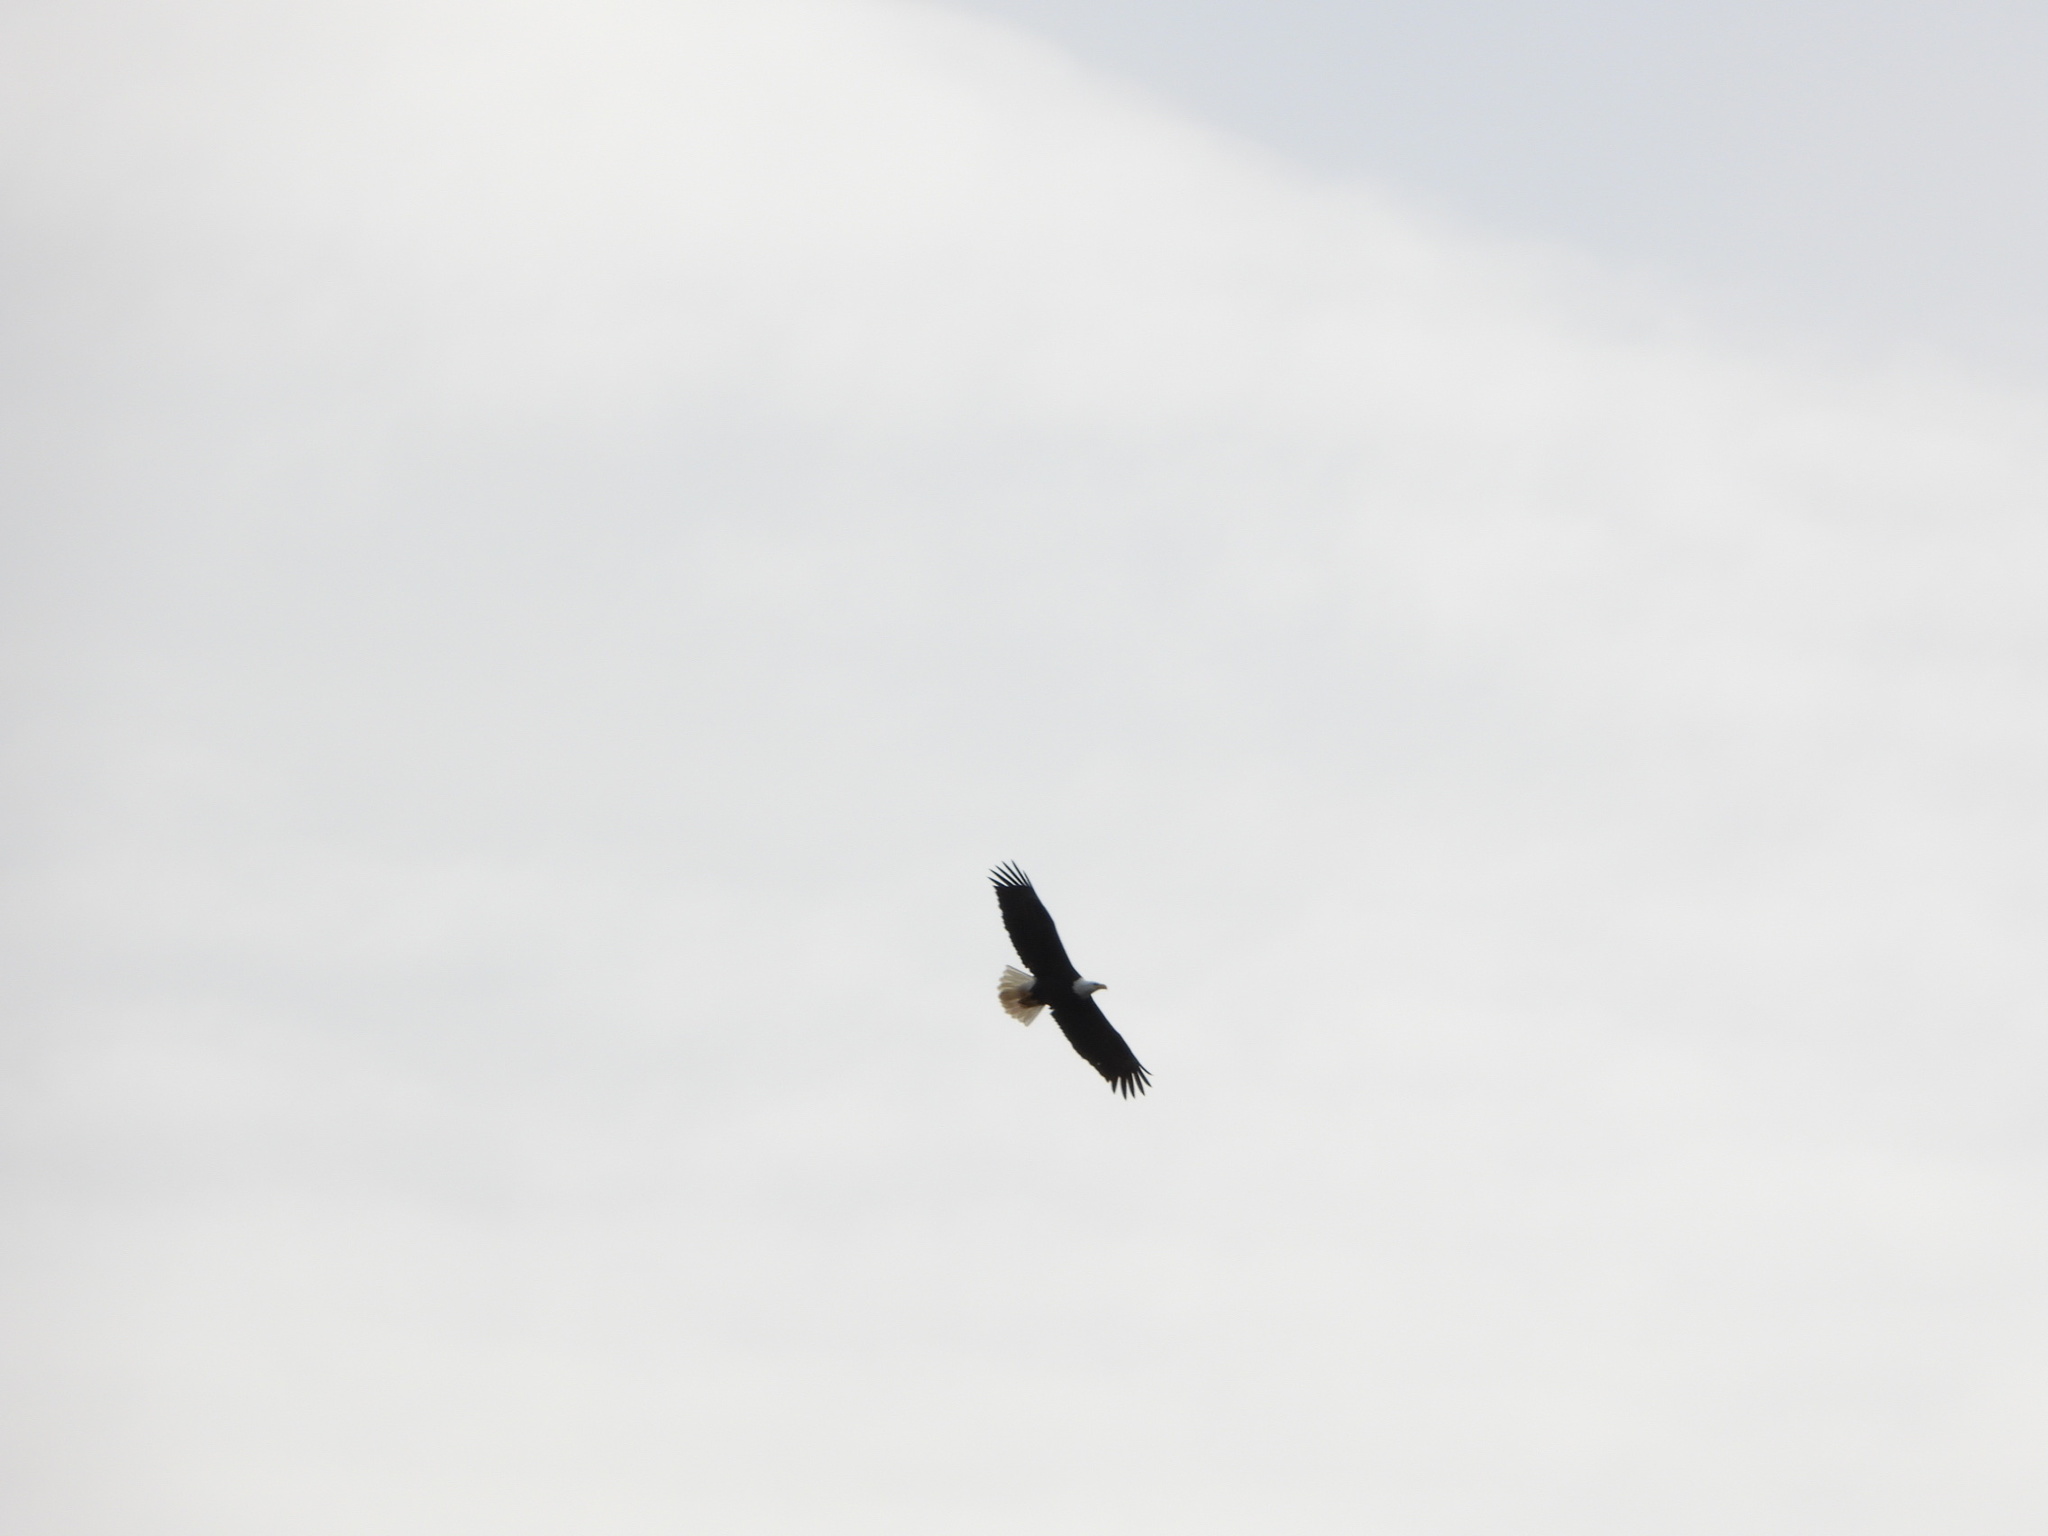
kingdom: Animalia
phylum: Chordata
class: Aves
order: Accipitriformes
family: Accipitridae
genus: Haliaeetus
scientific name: Haliaeetus leucocephalus
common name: Bald eagle
